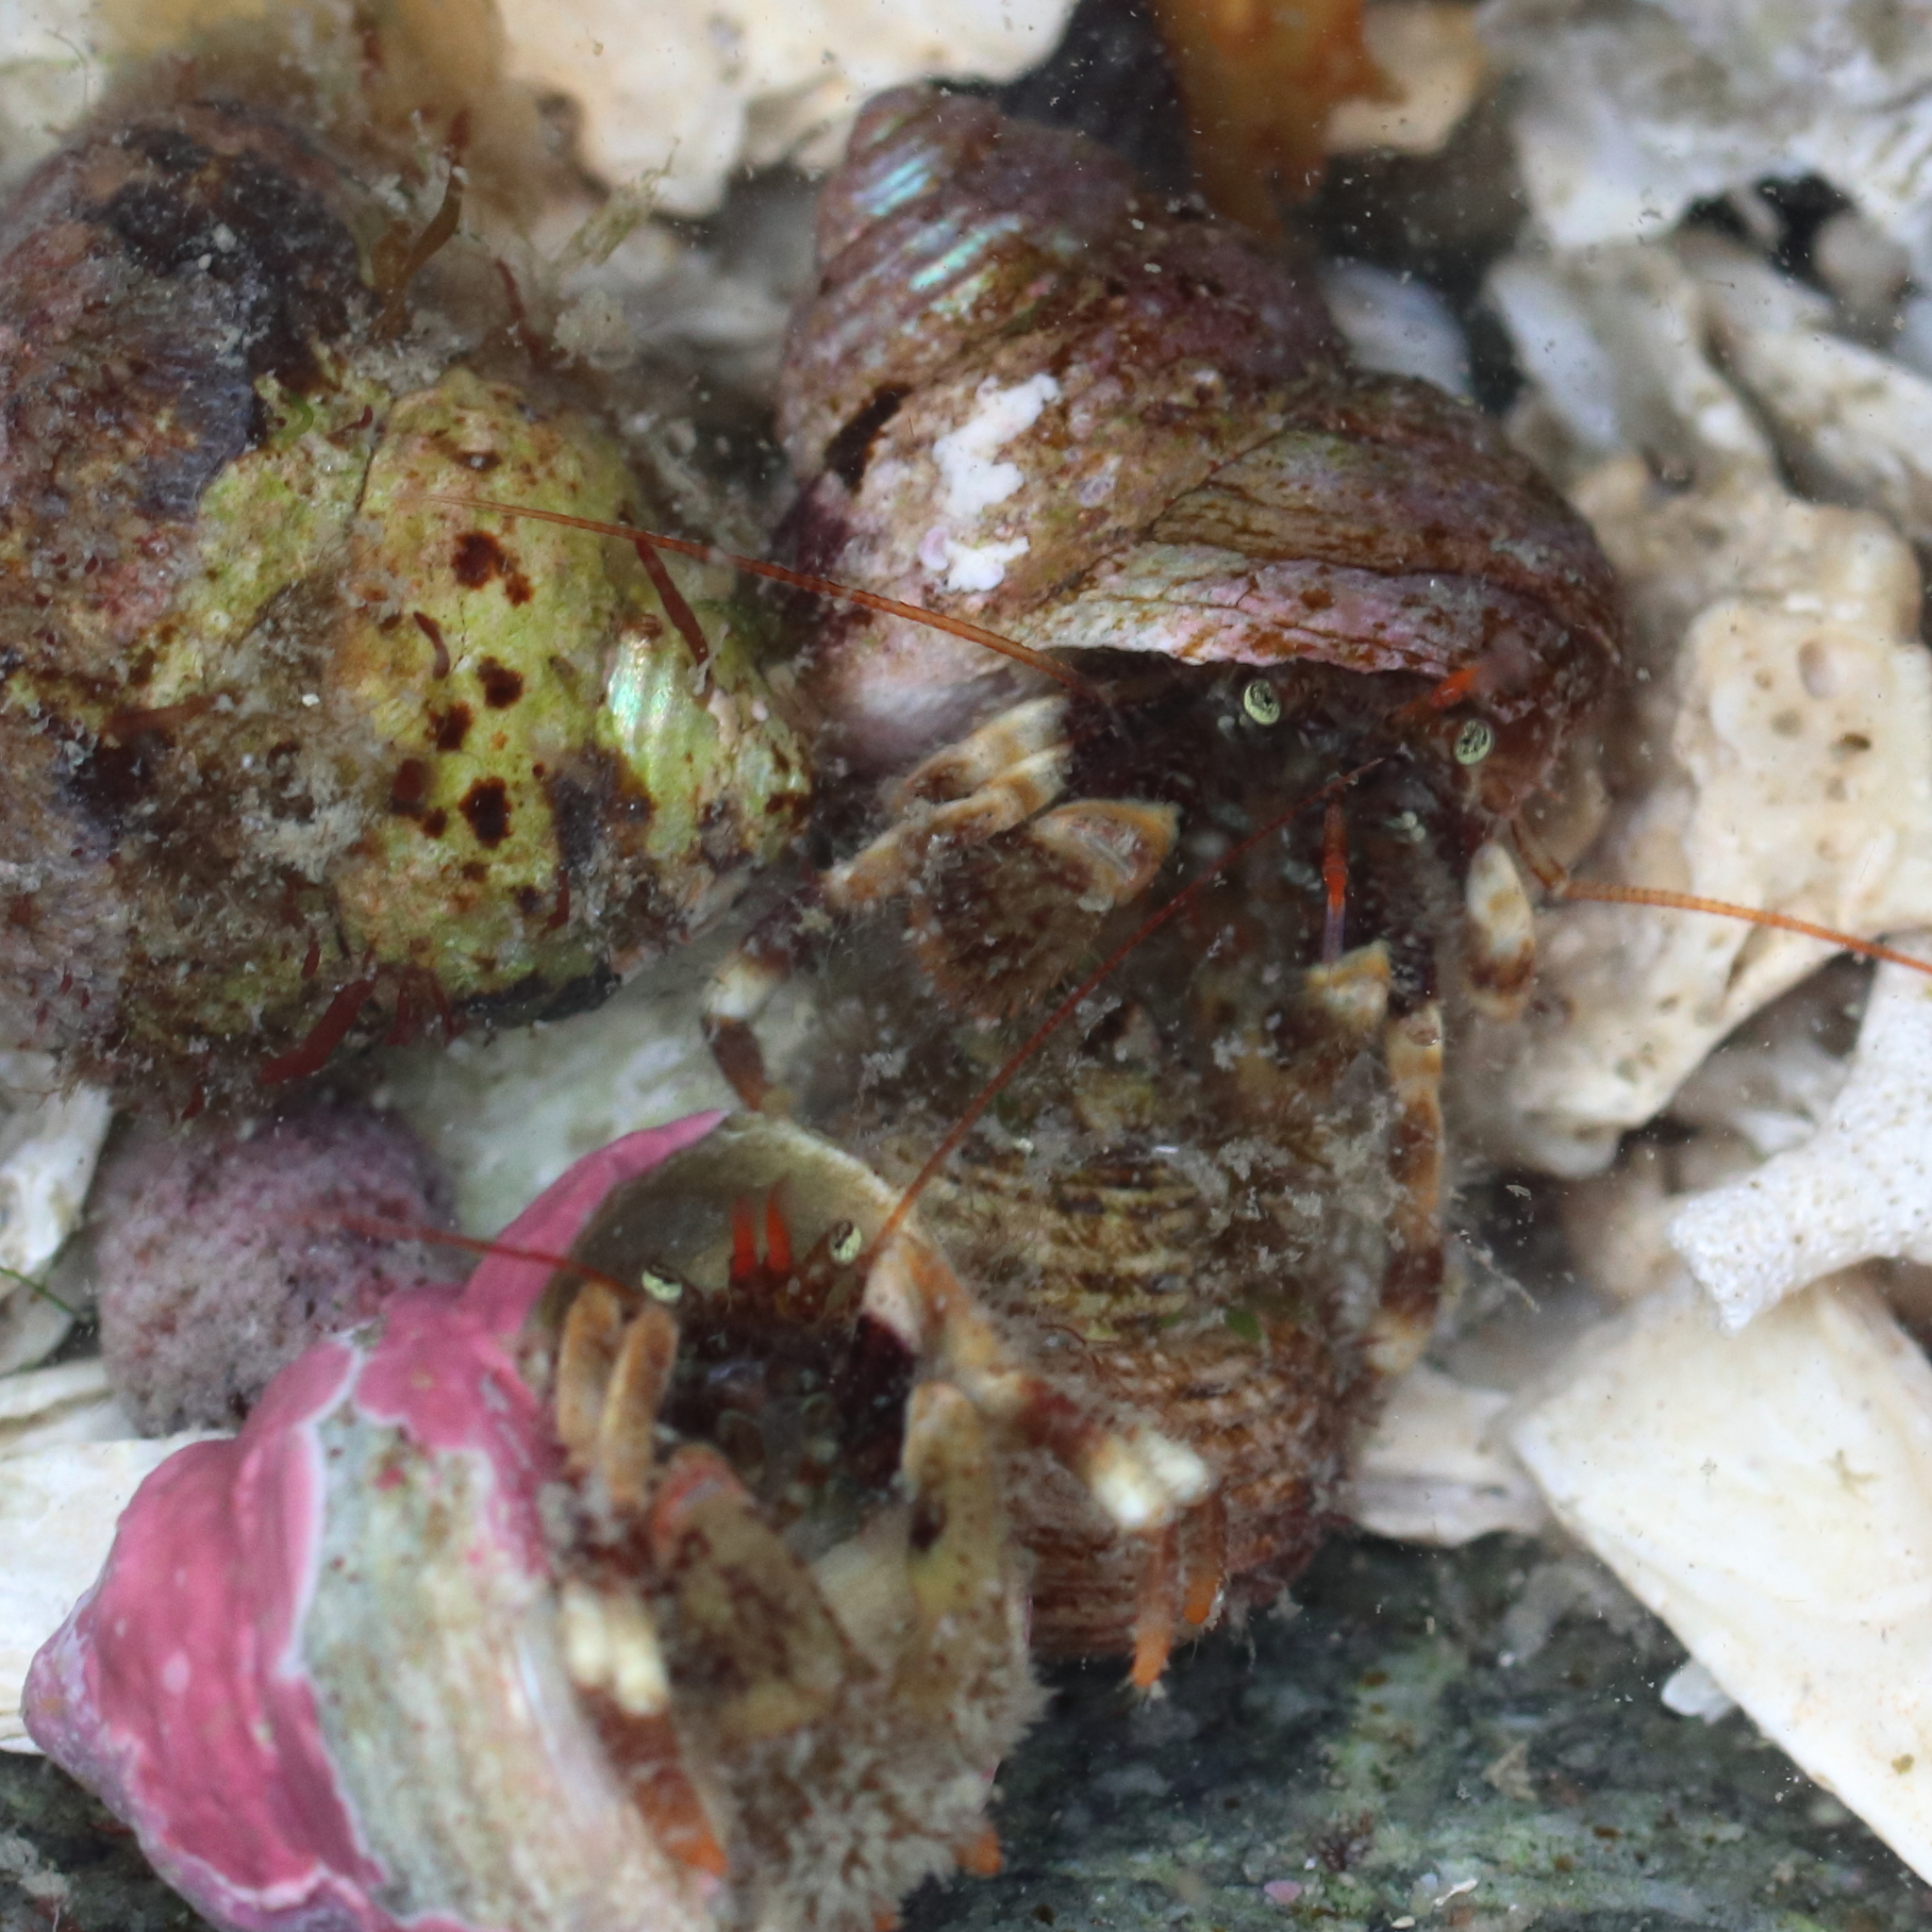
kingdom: Animalia
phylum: Arthropoda
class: Malacostraca
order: Decapoda
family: Paguridae
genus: Pagurus
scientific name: Pagurus caurinus
